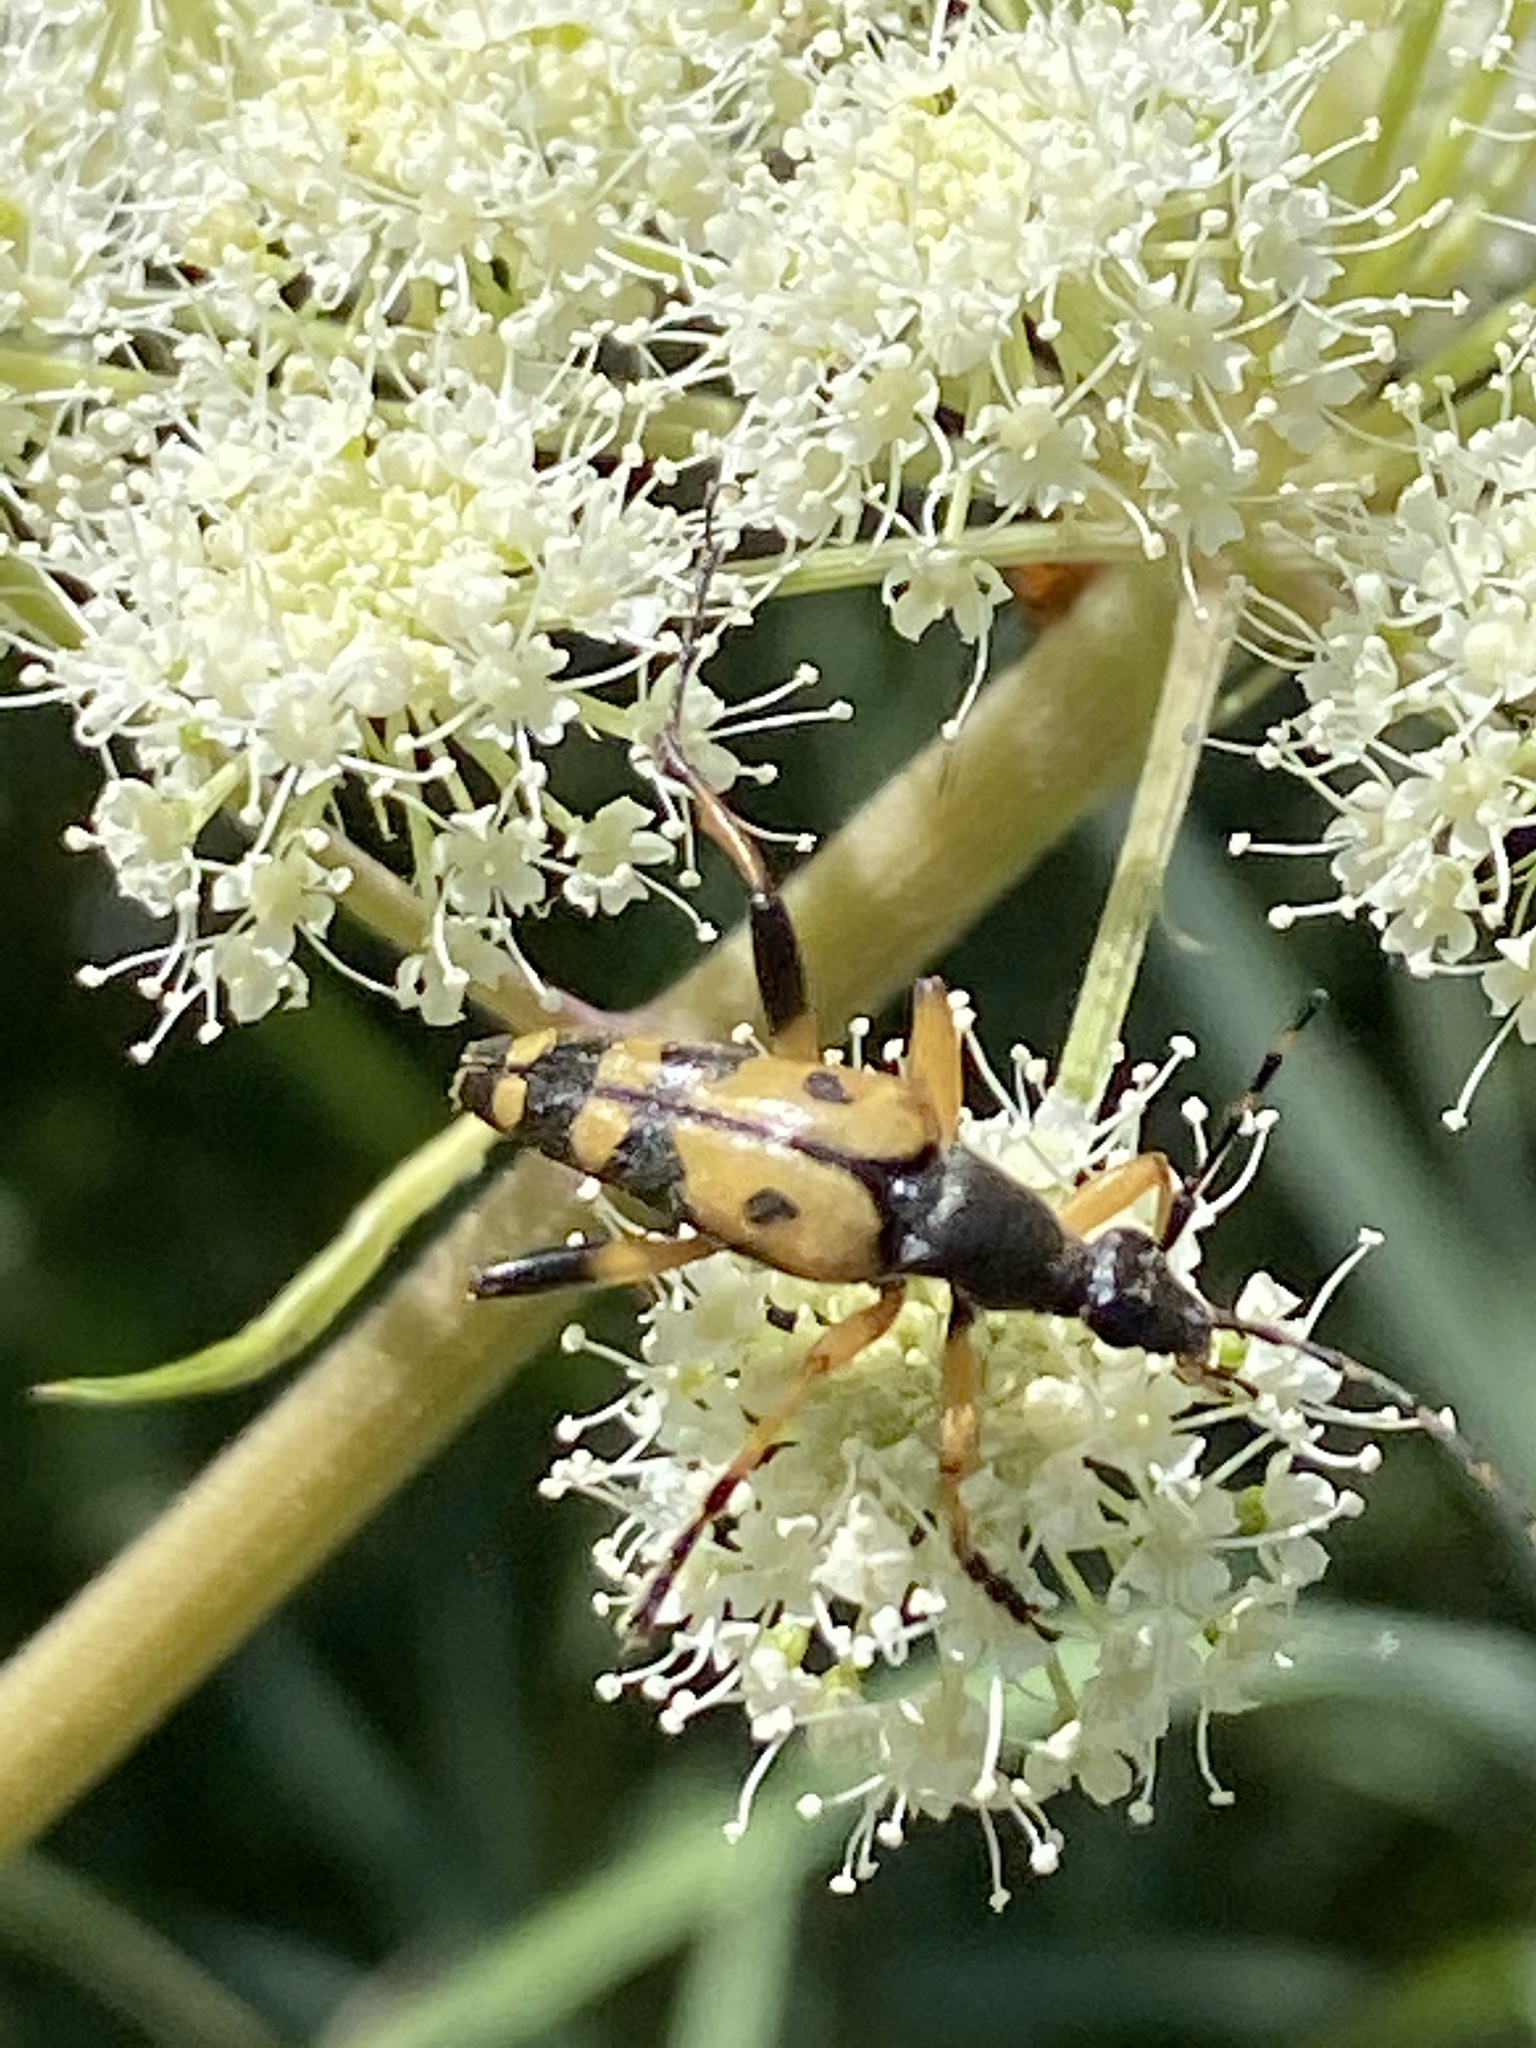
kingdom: Animalia
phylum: Arthropoda
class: Insecta
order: Coleoptera
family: Cerambycidae
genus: Rutpela
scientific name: Rutpela maculata
